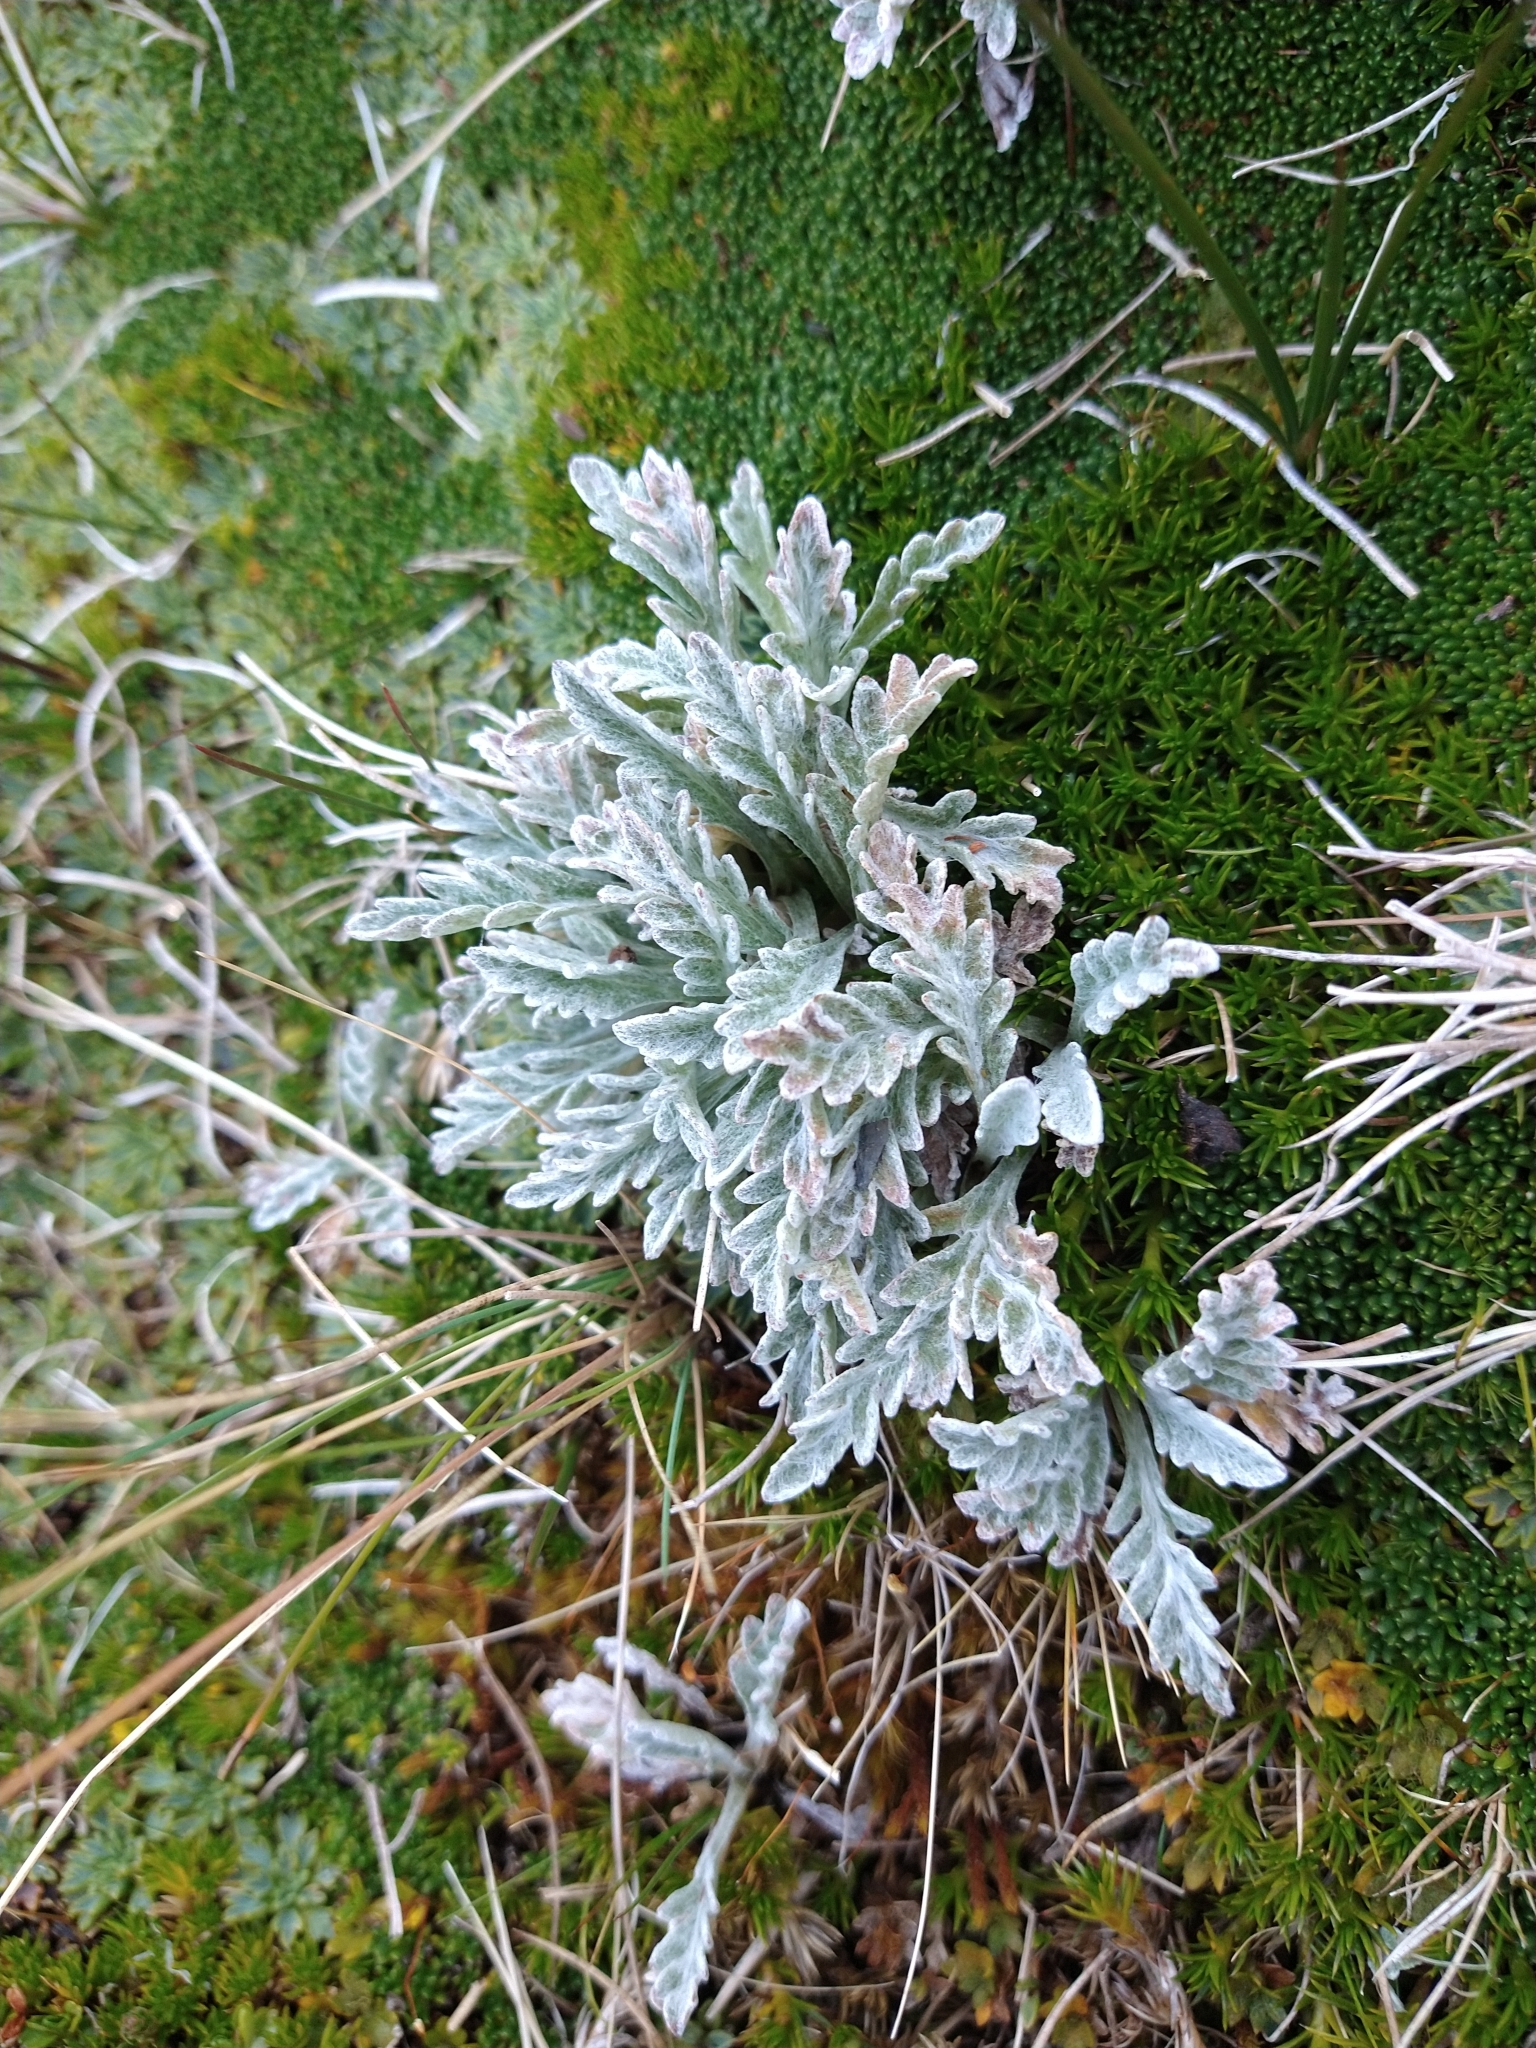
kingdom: Plantae
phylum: Tracheophyta
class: Magnoliopsida
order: Asterales
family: Asteraceae
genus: Leucheria
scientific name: Leucheria hahnii
